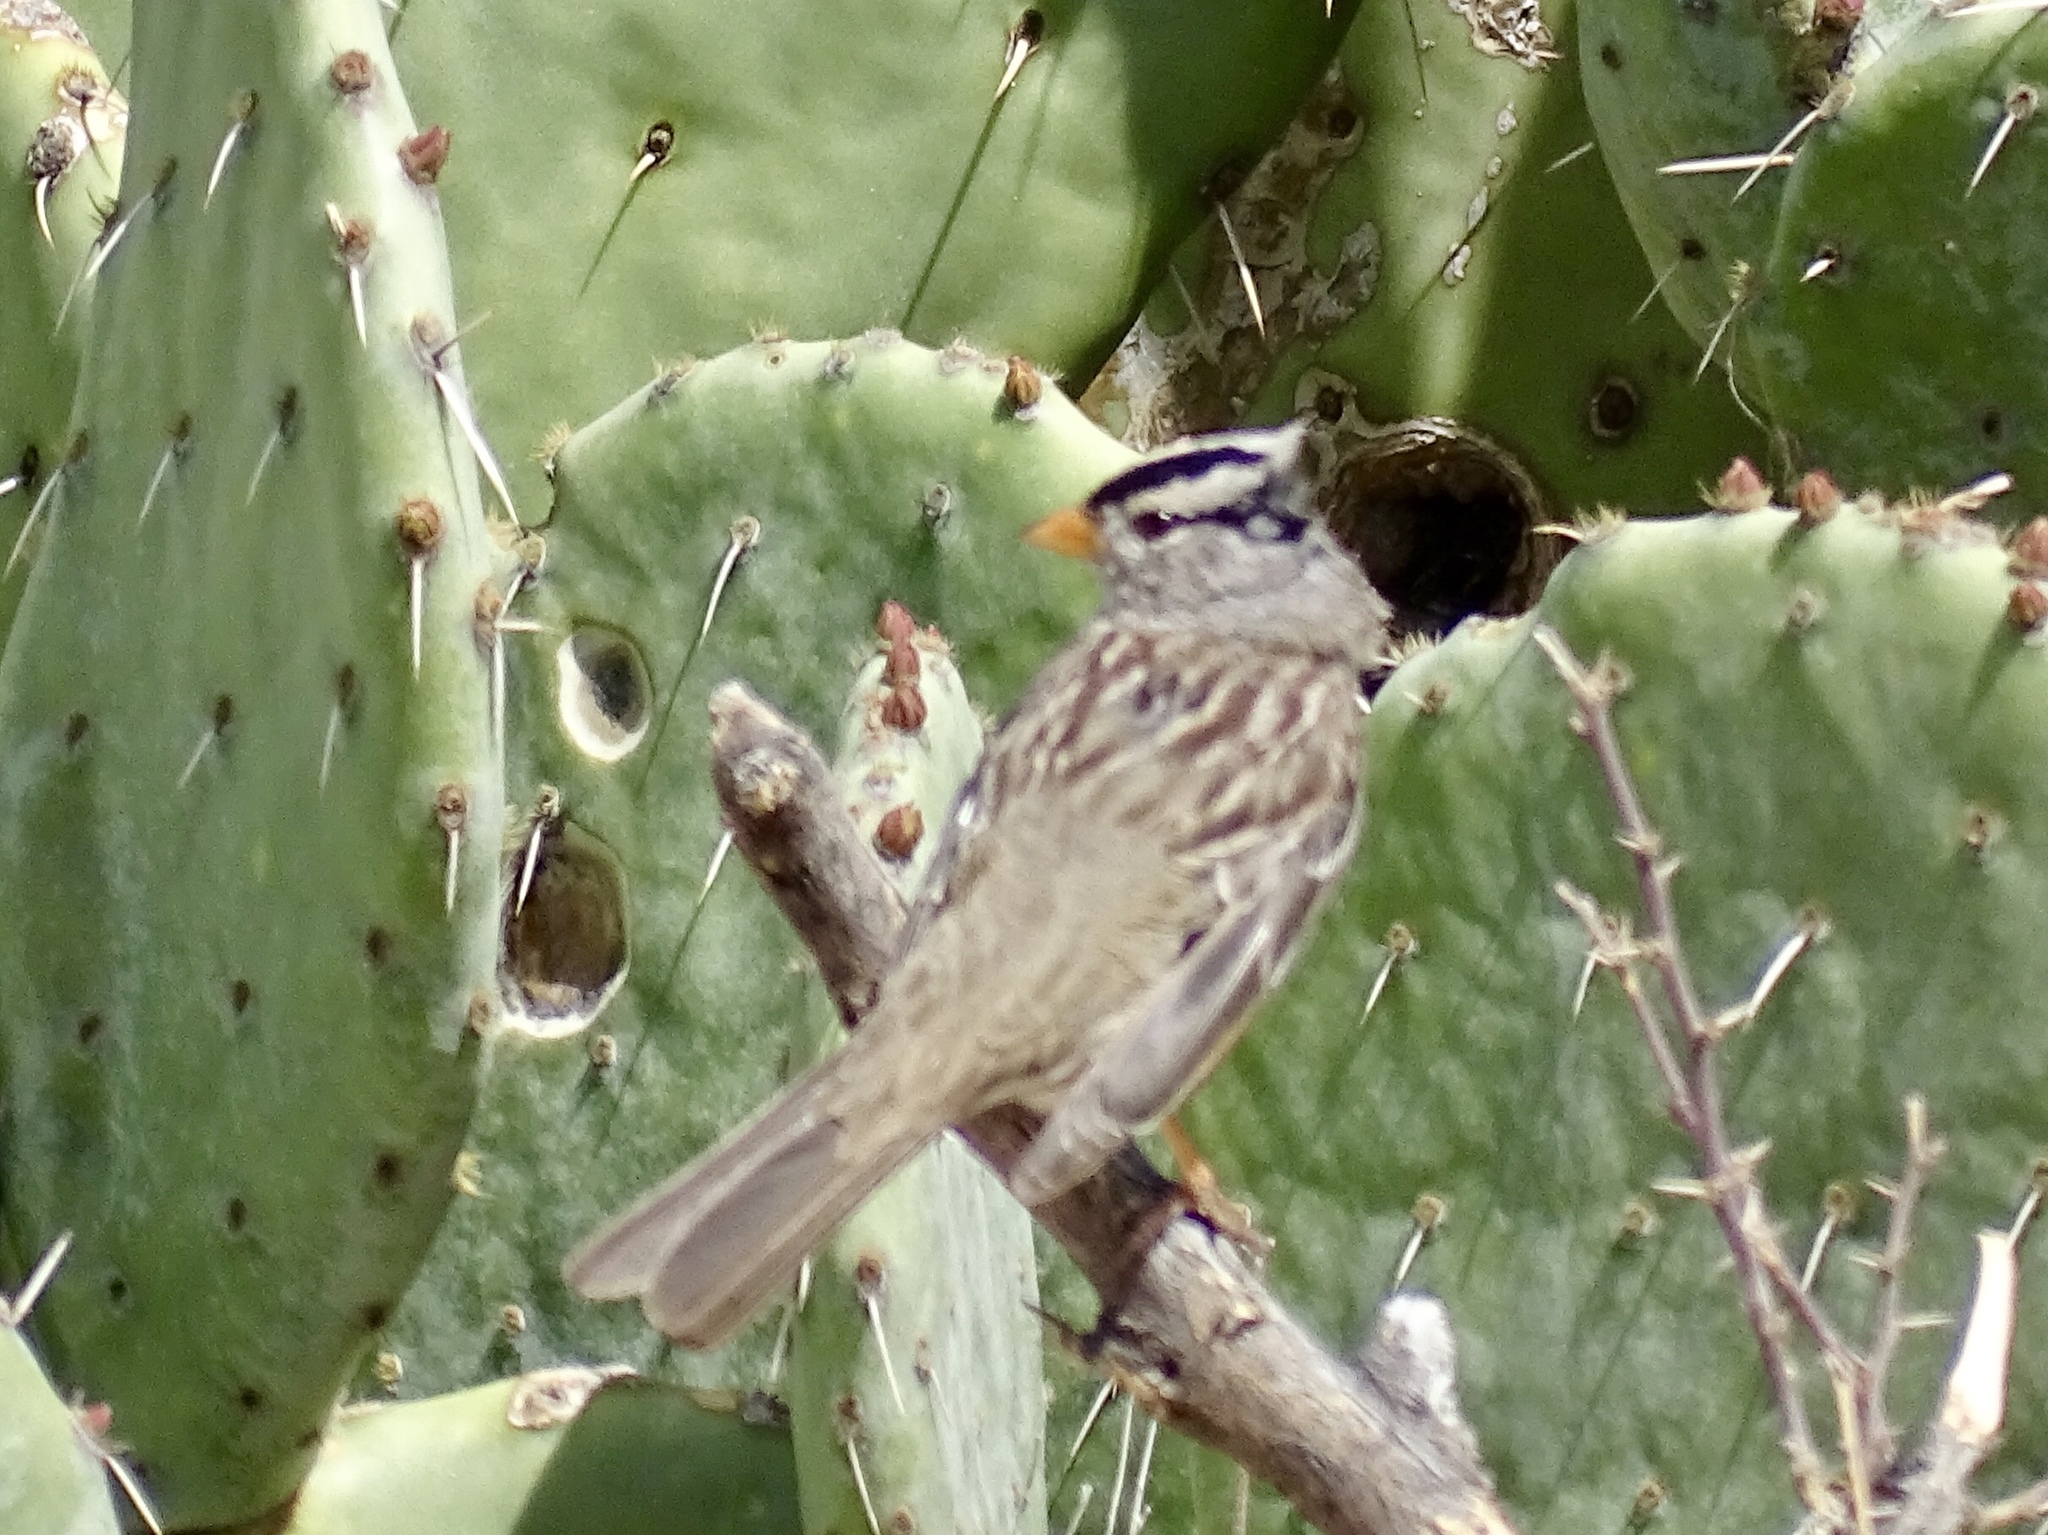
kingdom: Animalia
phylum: Chordata
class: Aves
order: Passeriformes
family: Passerellidae
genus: Zonotrichia
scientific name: Zonotrichia leucophrys
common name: White-crowned sparrow
